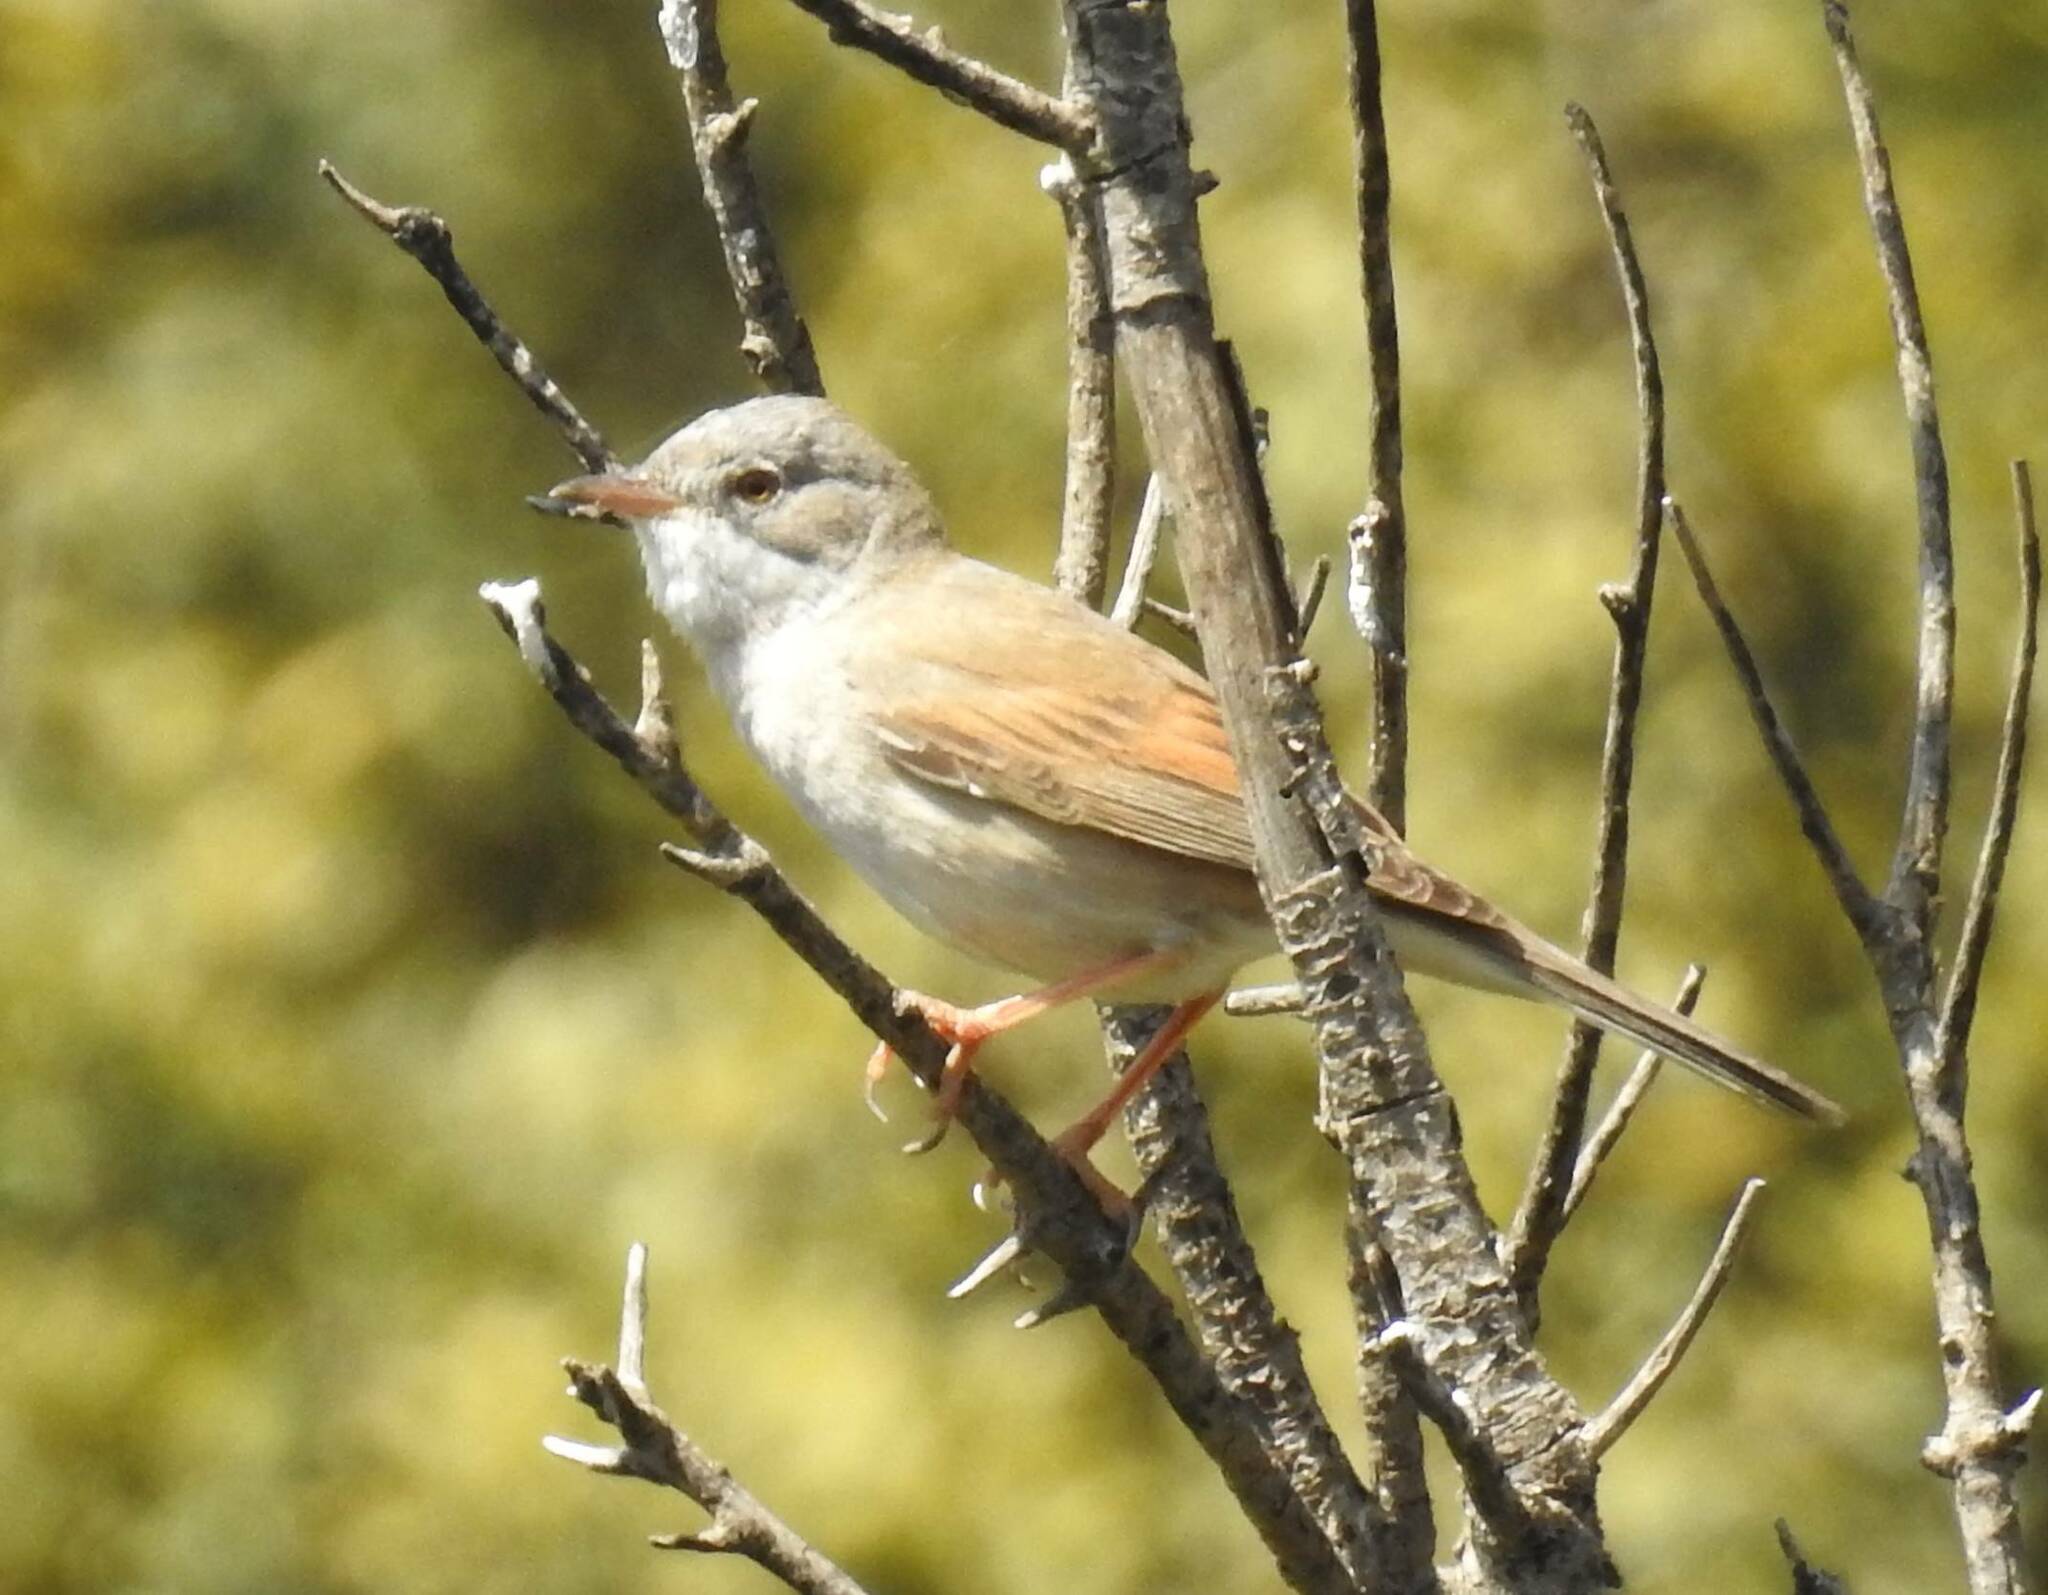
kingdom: Animalia
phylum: Chordata
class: Aves
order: Passeriformes
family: Sylviidae
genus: Sylvia
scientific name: Sylvia conspicillata
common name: Spectacled warbler
